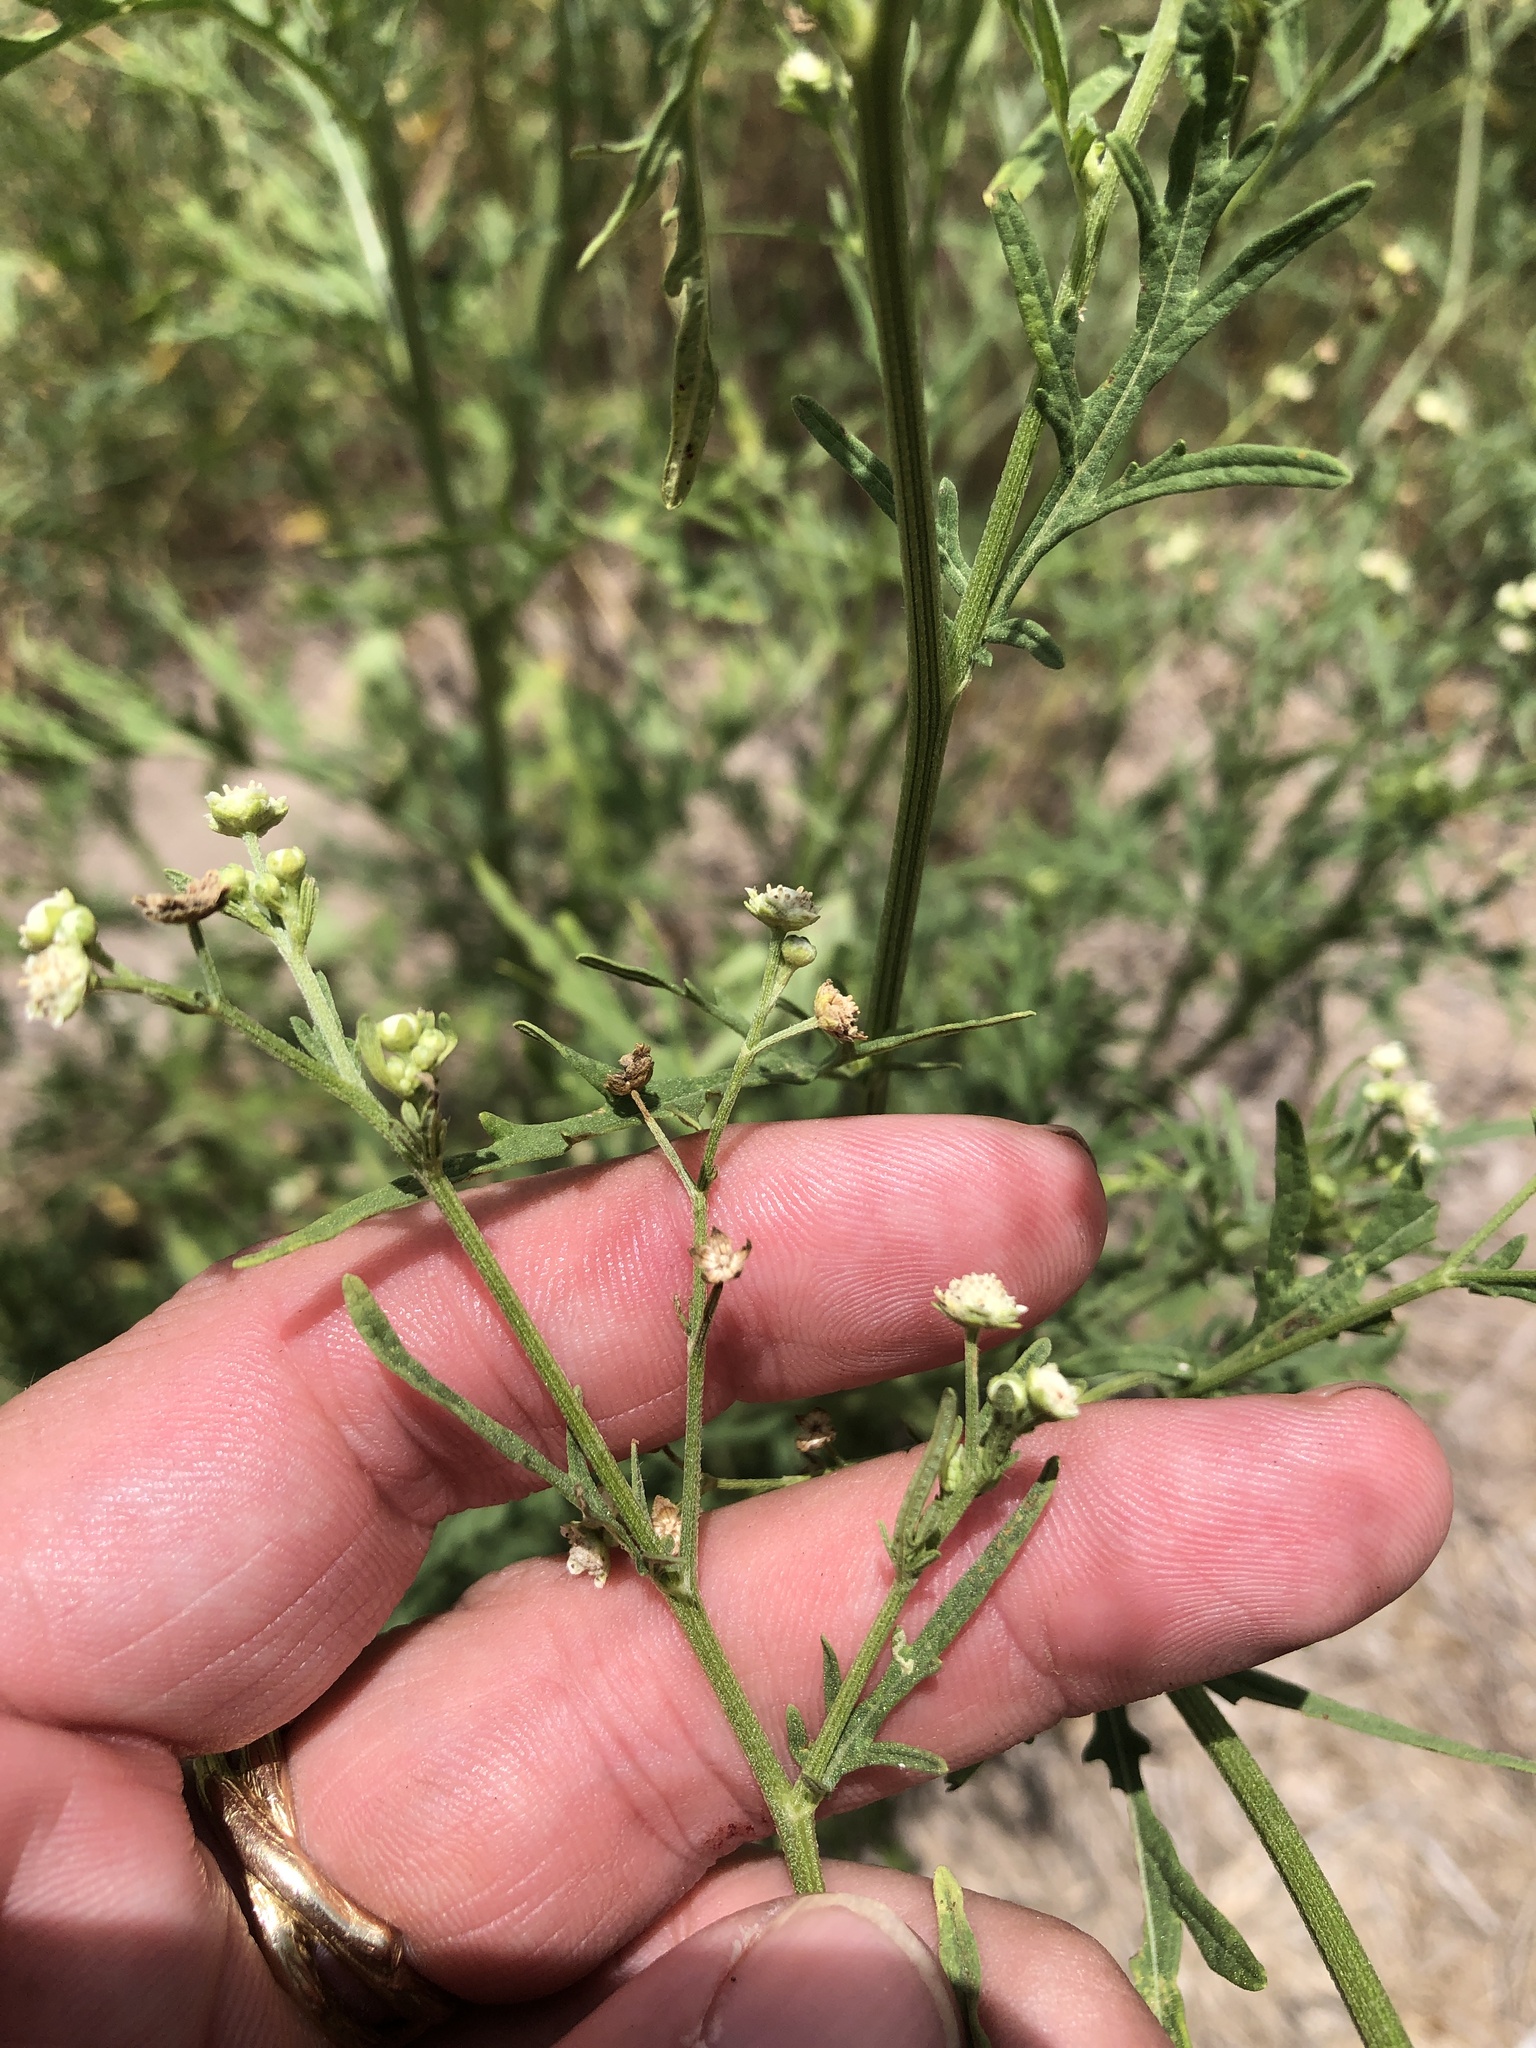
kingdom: Plantae
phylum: Tracheophyta
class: Magnoliopsida
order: Asterales
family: Asteraceae
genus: Parthenium
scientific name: Parthenium hysterophorus
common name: Santa maria feverfew
